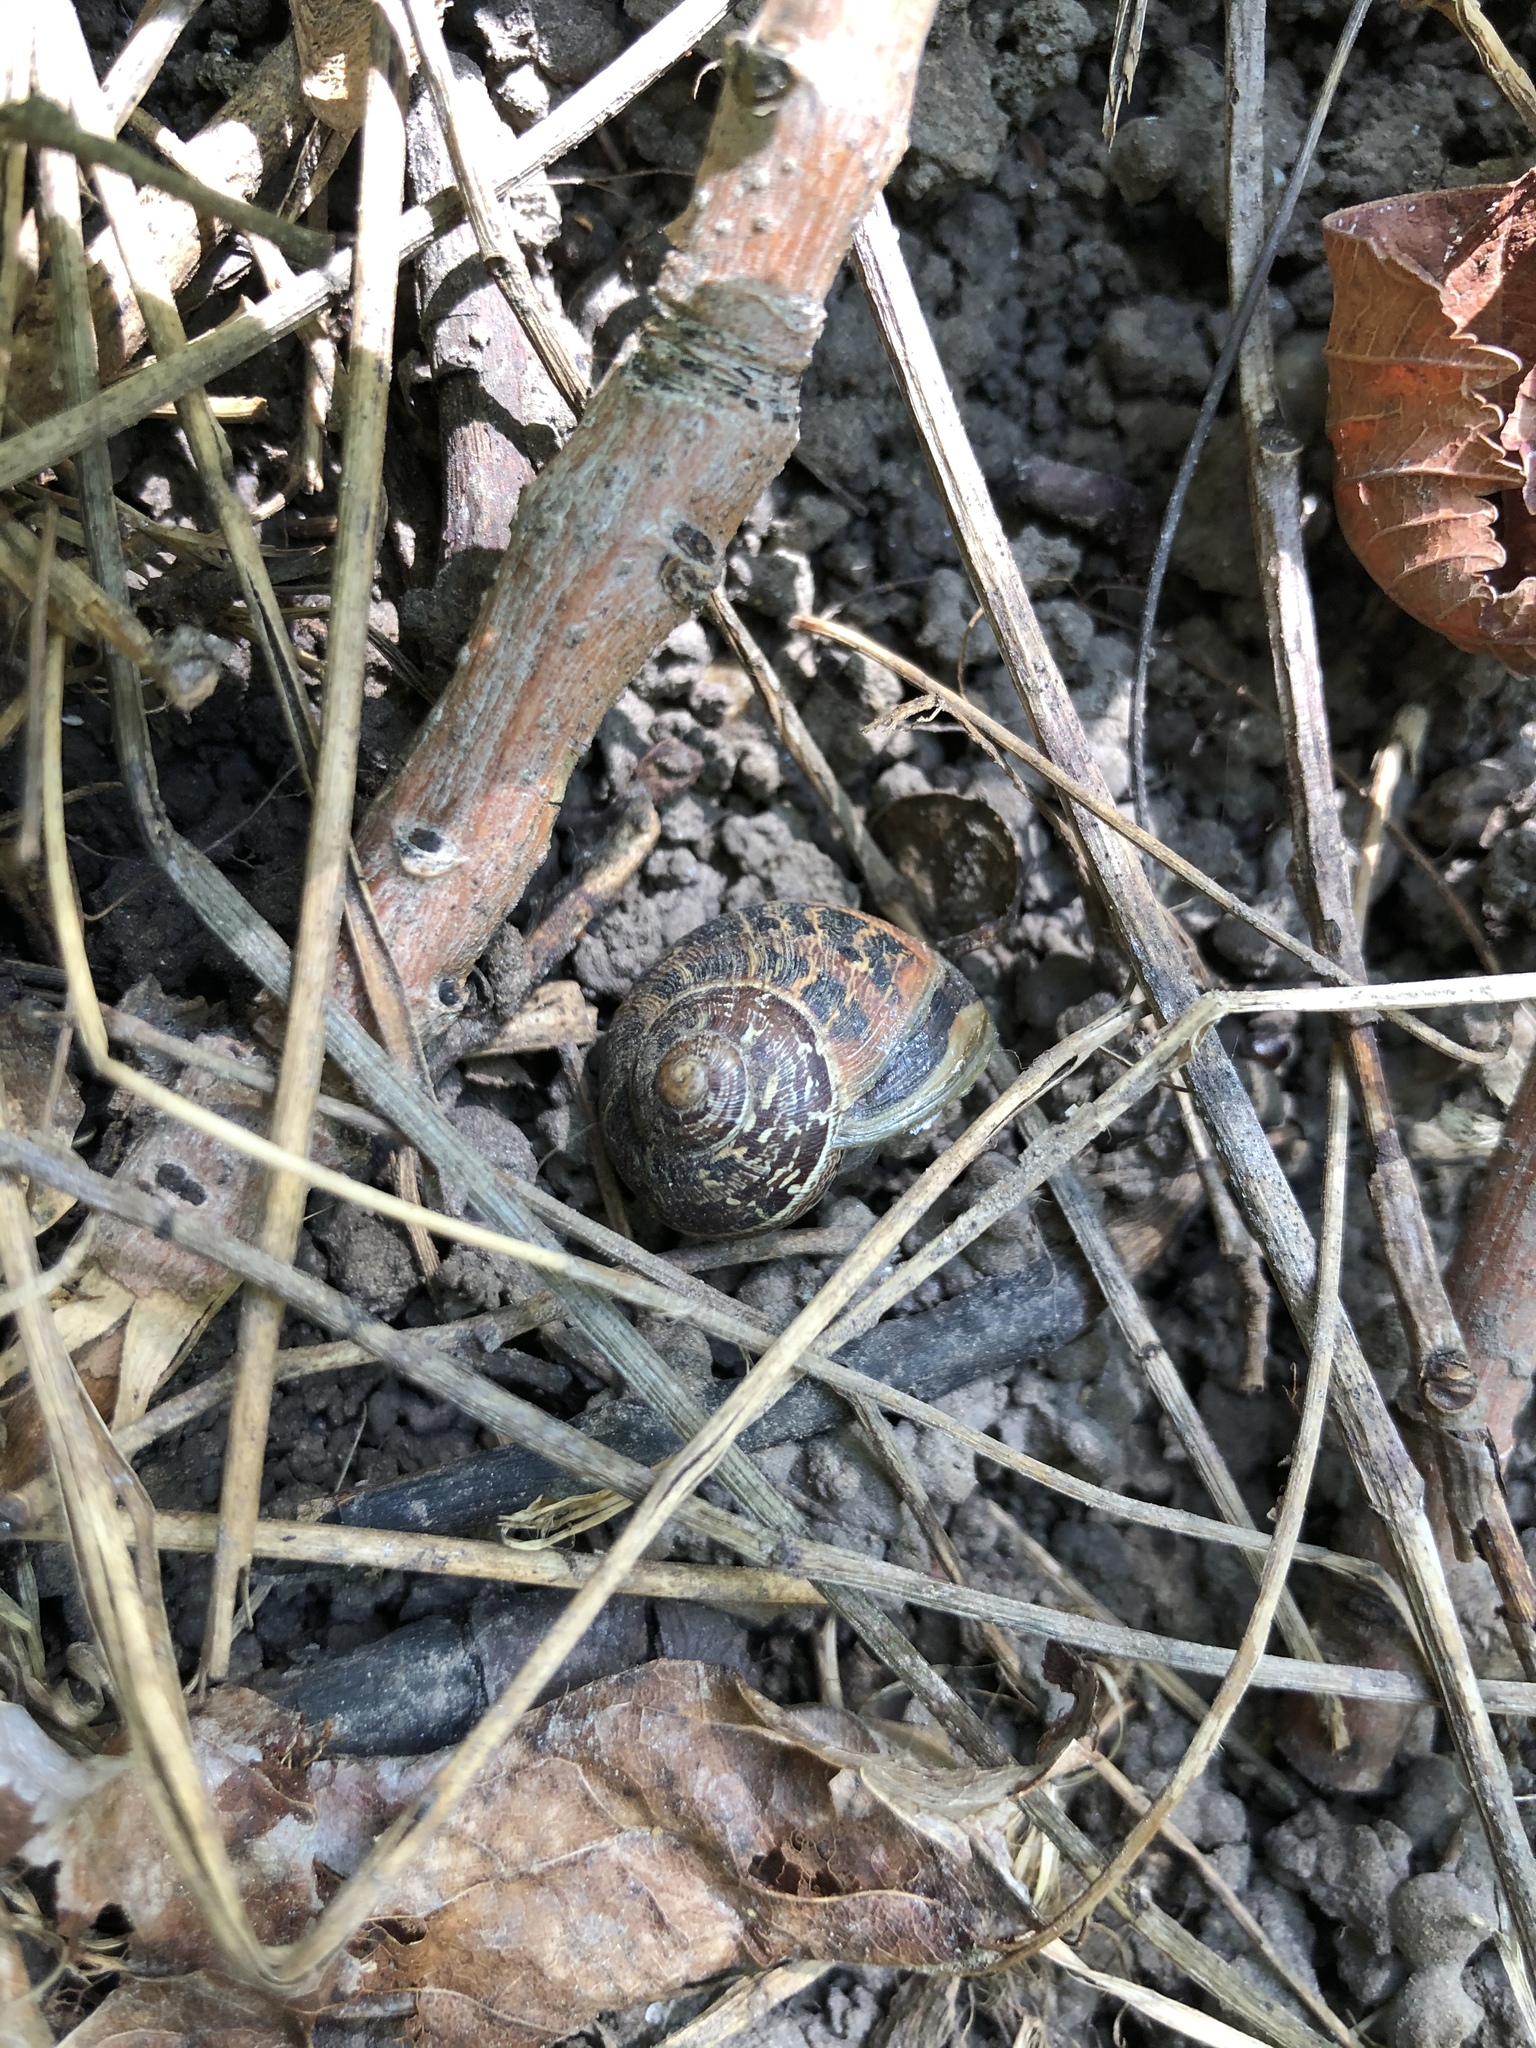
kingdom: Animalia
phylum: Mollusca
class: Gastropoda
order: Stylommatophora
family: Helicidae
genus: Cornu
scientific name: Cornu aspersum
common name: Brown garden snail
